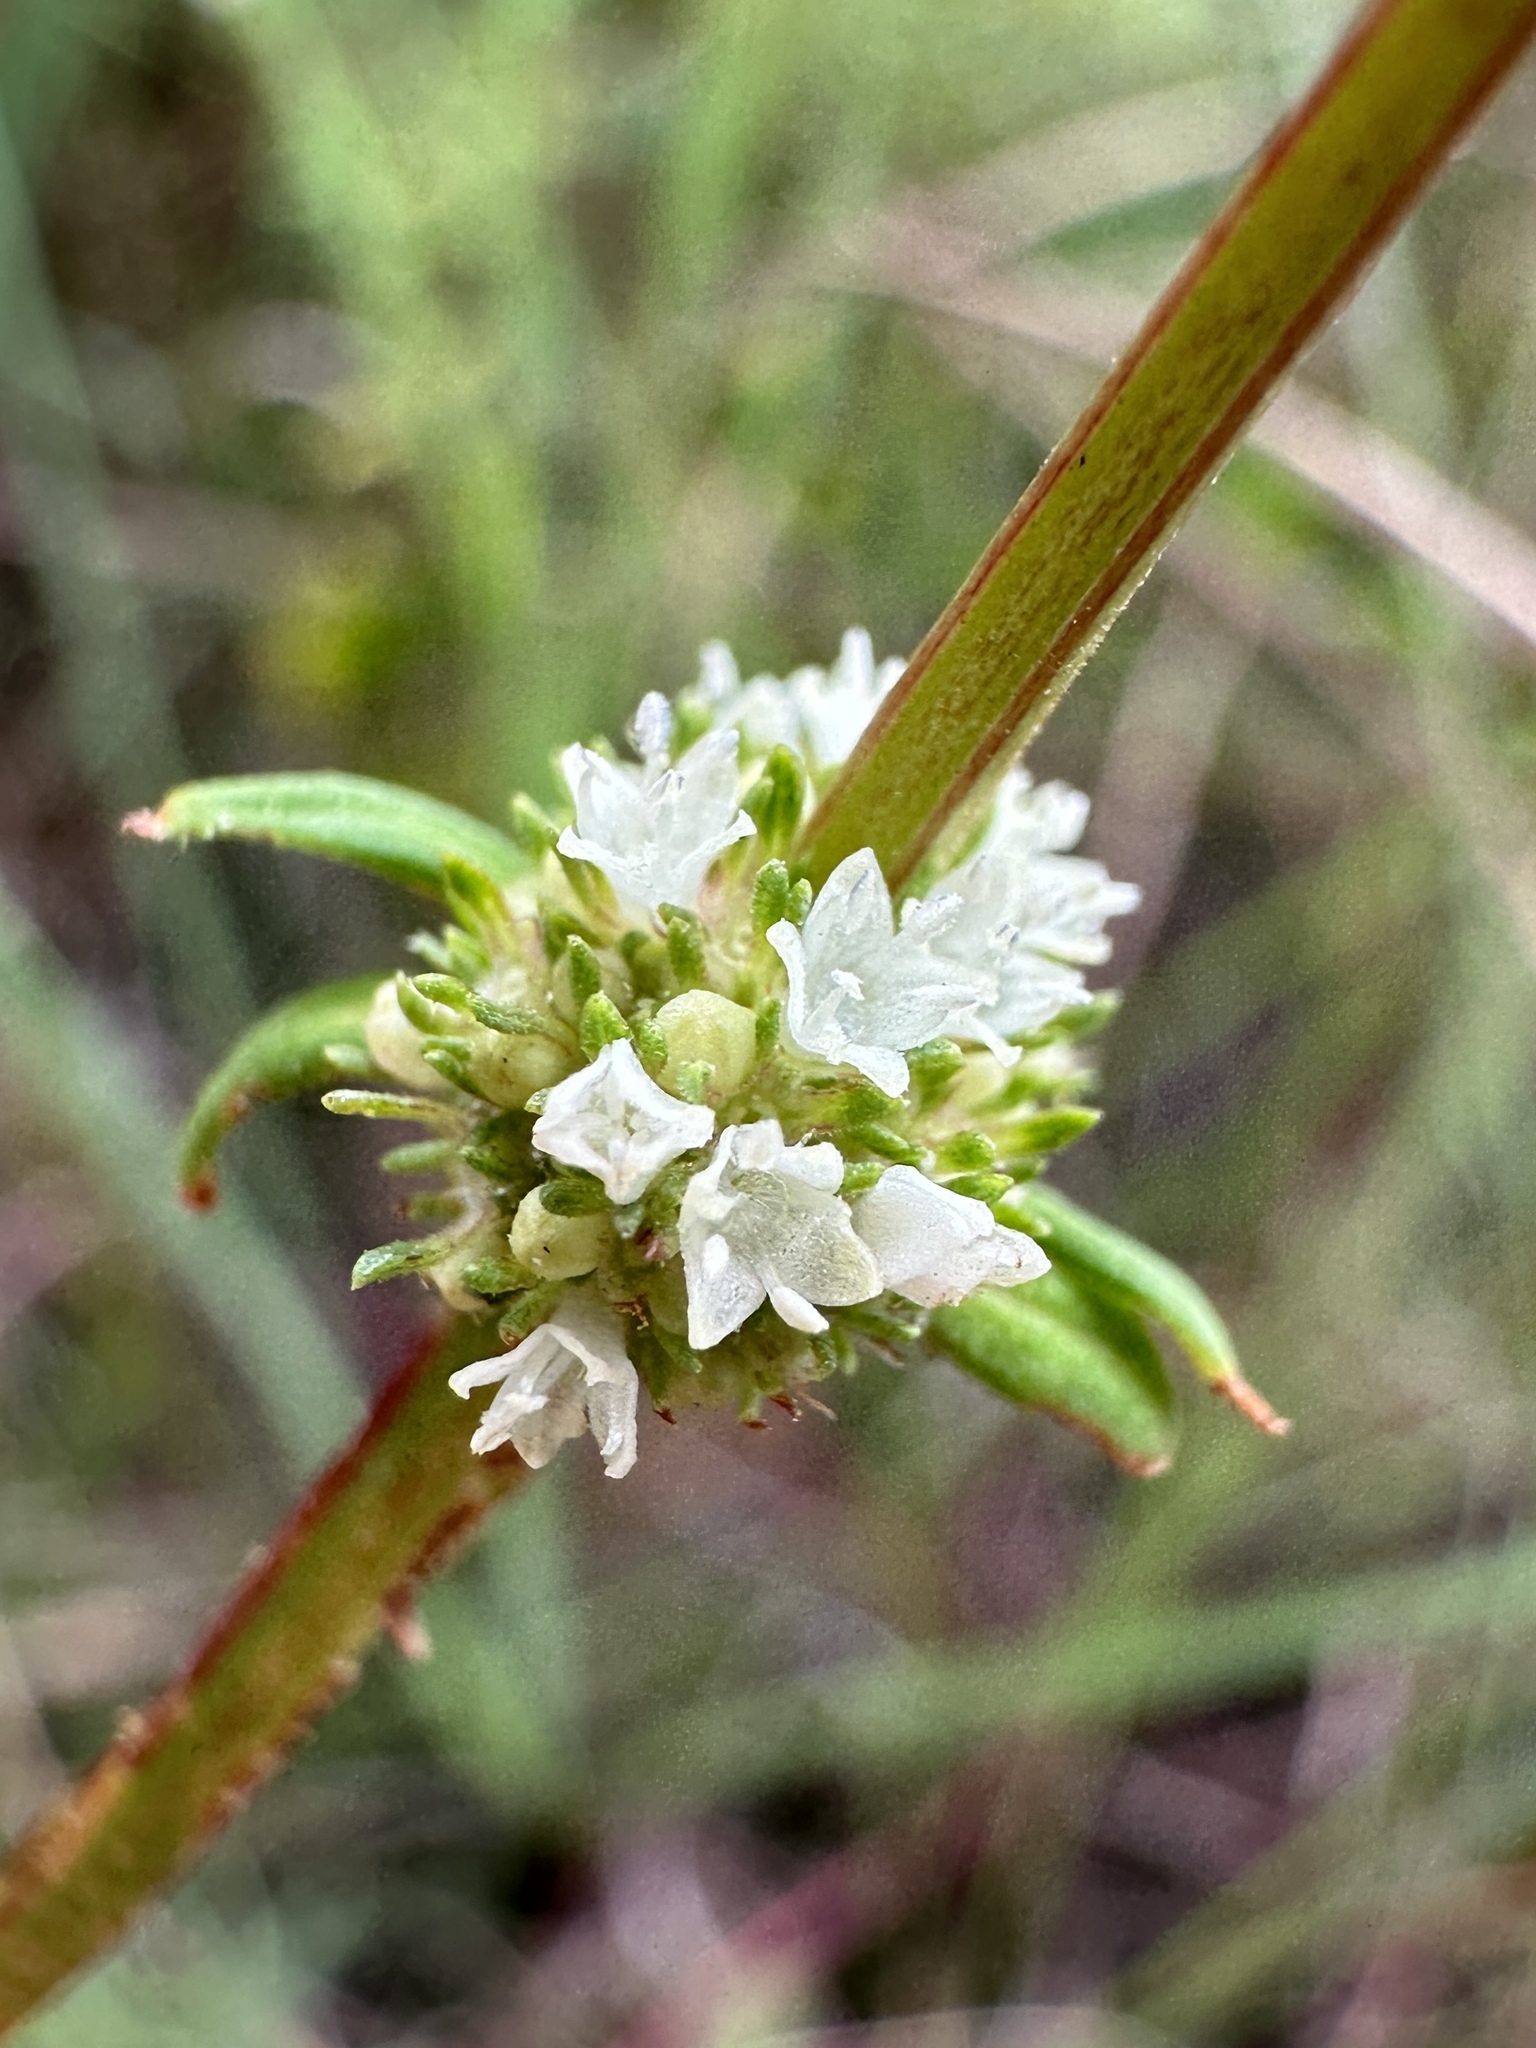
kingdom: Plantae
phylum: Tracheophyta
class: Magnoliopsida
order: Gentianales
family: Rubiaceae
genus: Spermacoce
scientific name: Spermacoce verticillata
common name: Shrubby false buttonweed
